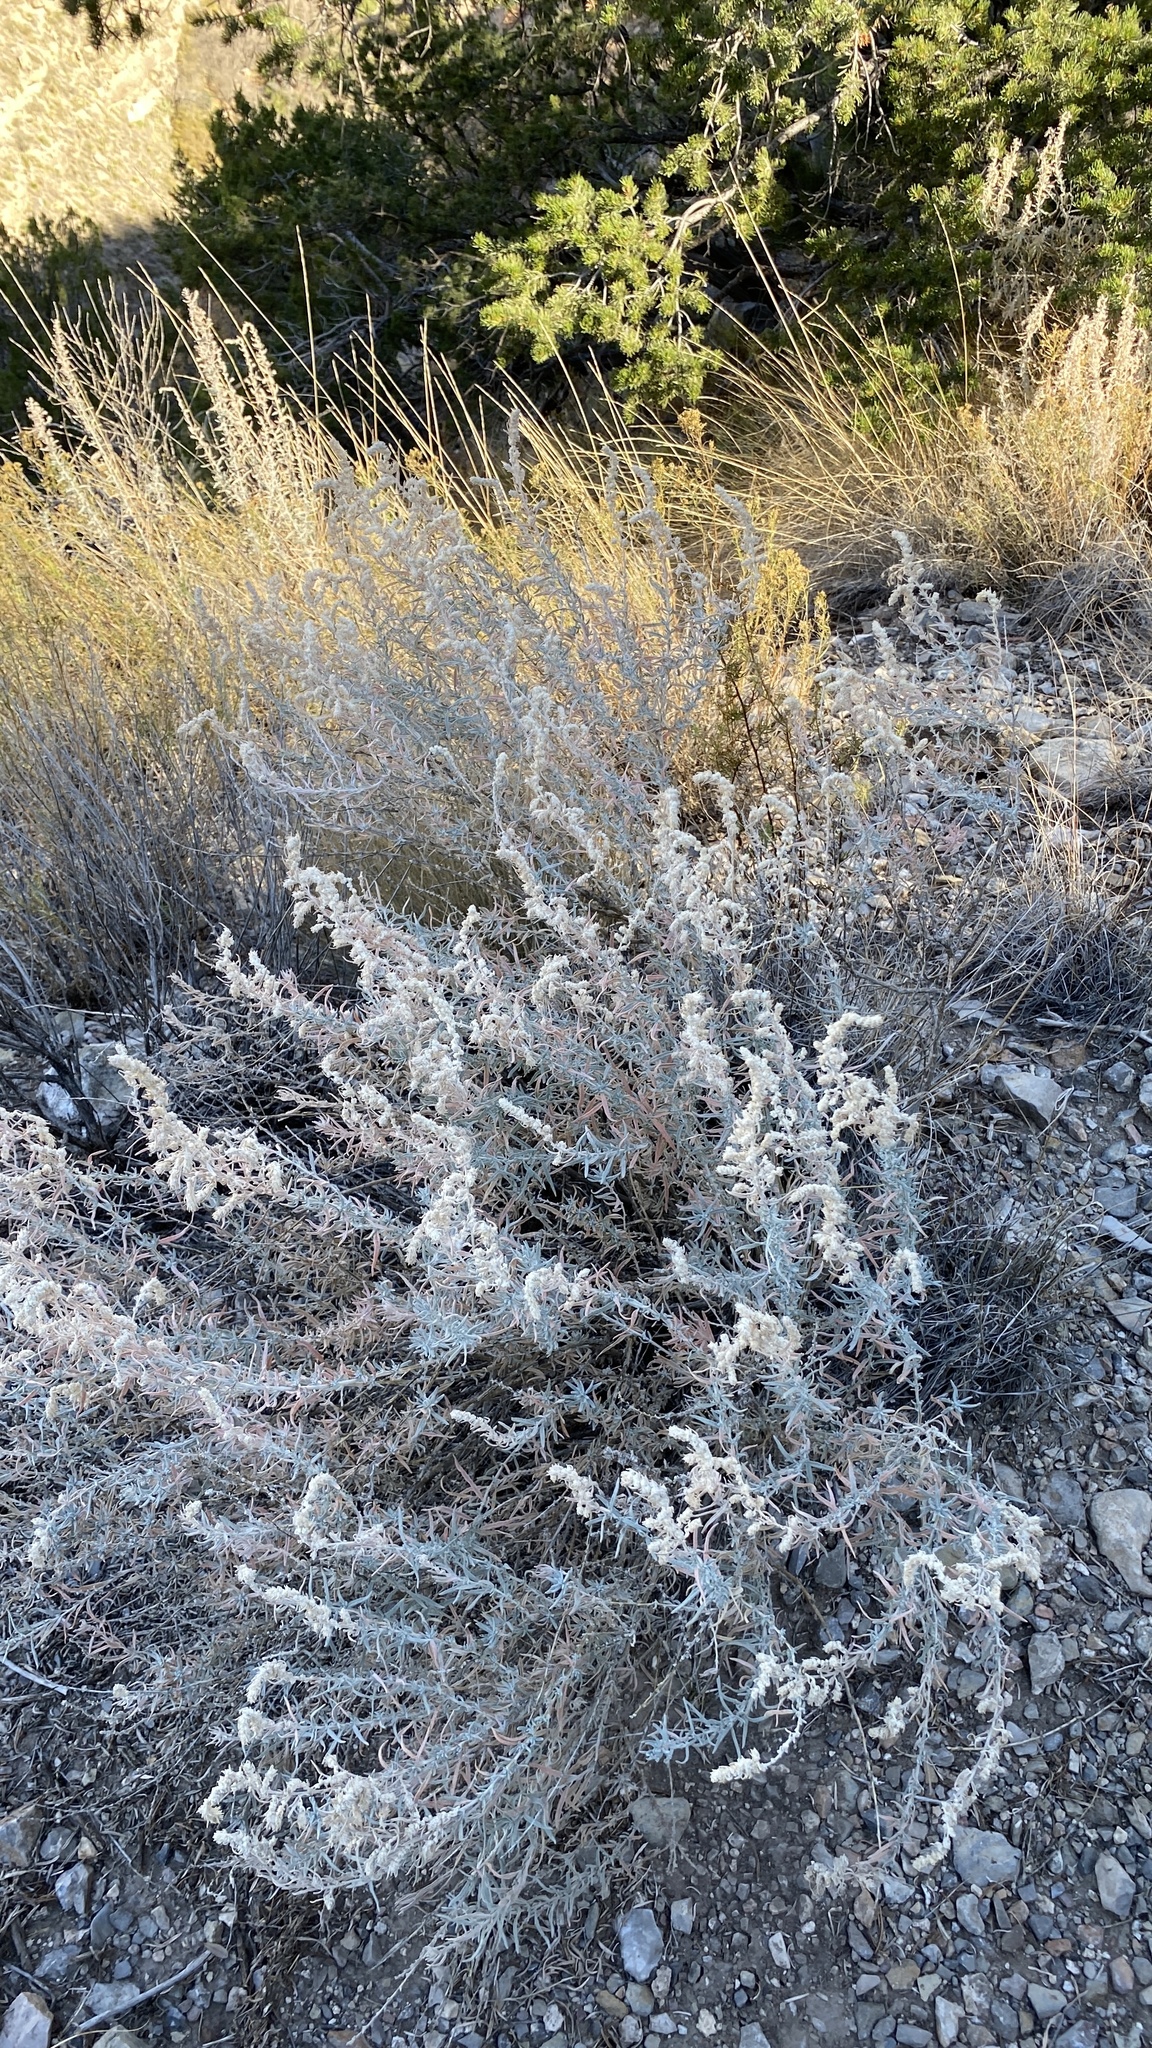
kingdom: Plantae
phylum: Tracheophyta
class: Magnoliopsida
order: Caryophyllales
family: Amaranthaceae
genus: Krascheninnikovia
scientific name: Krascheninnikovia lanata
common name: Winterfat
